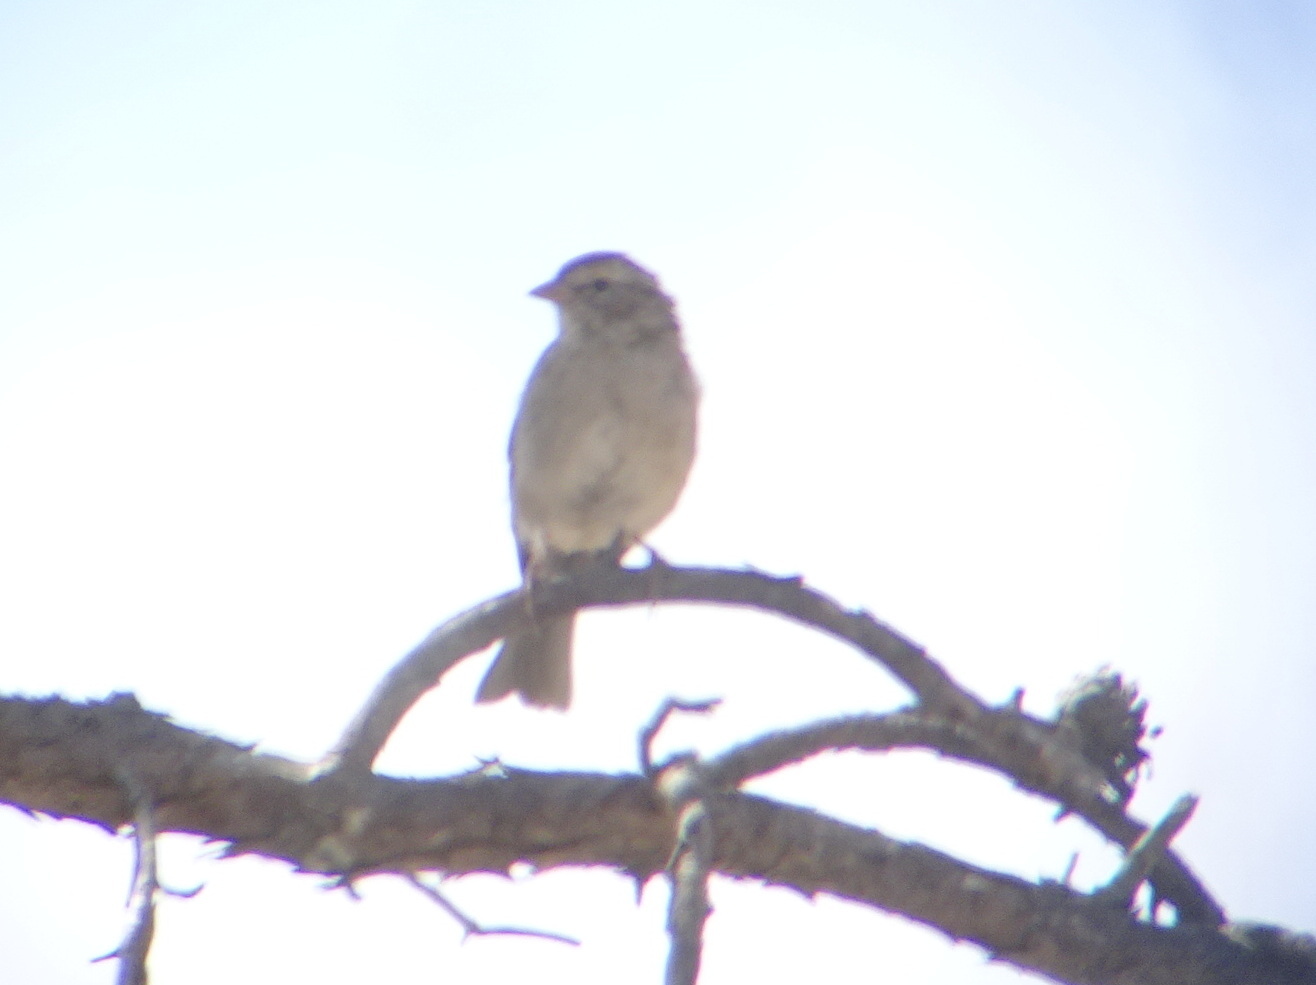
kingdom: Animalia
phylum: Chordata
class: Aves
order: Passeriformes
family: Passerellidae
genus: Spizella
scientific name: Spizella passerina
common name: Chipping sparrow
